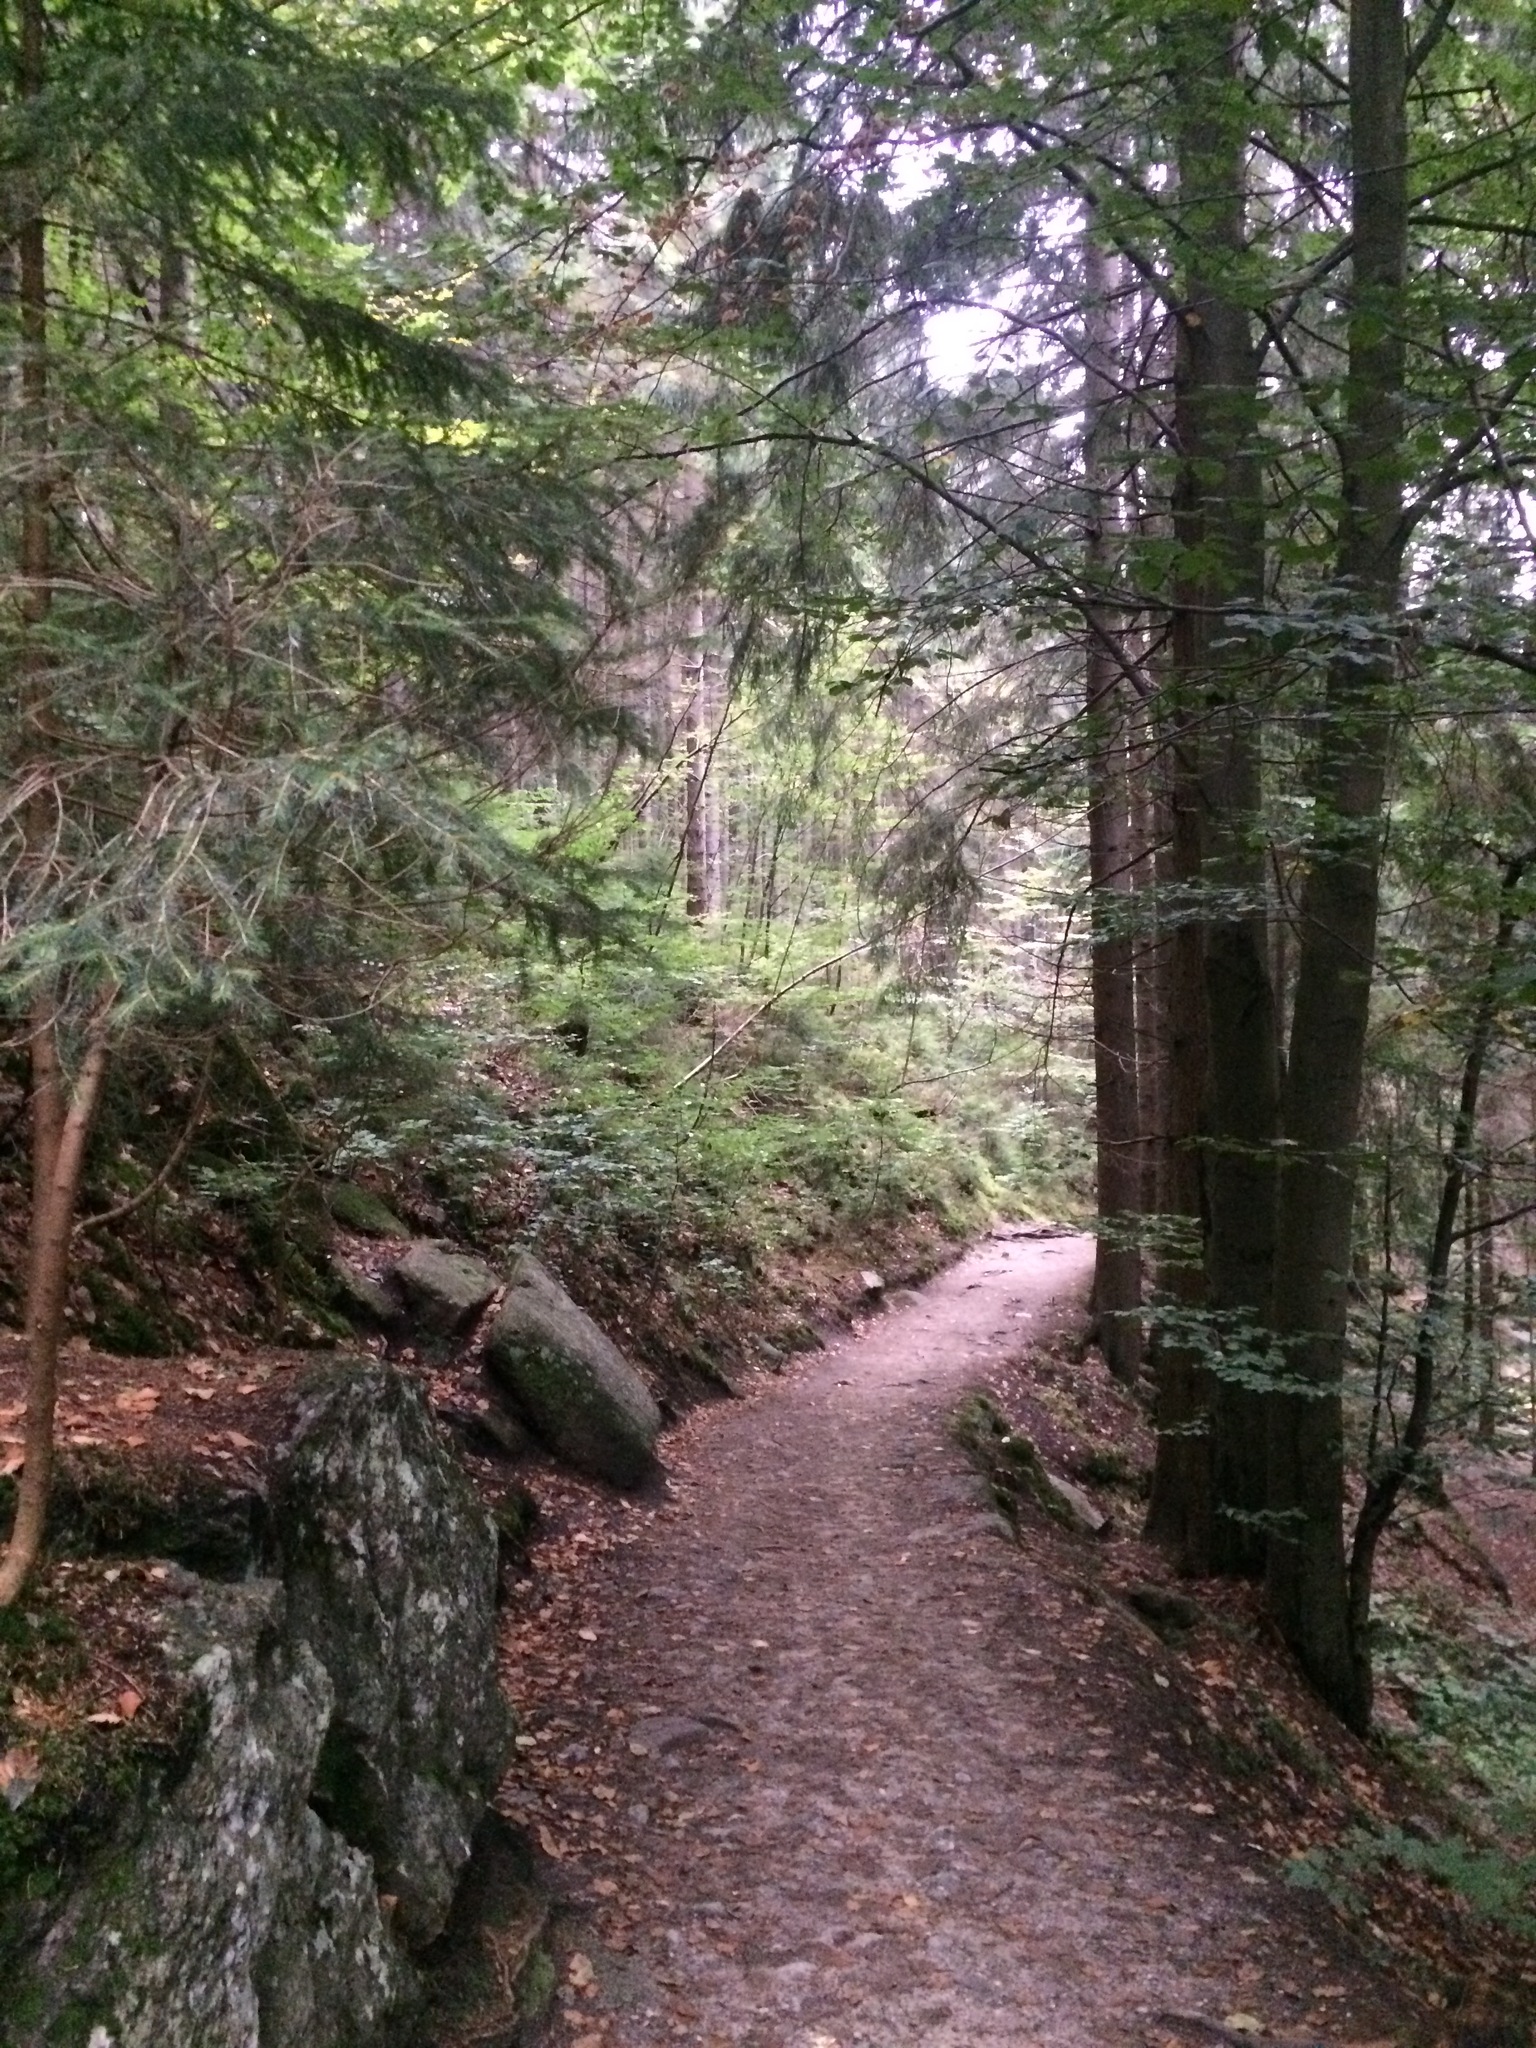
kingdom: Plantae
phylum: Tracheophyta
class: Pinopsida
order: Pinales
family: Pinaceae
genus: Picea
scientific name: Picea abies
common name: Norway spruce
